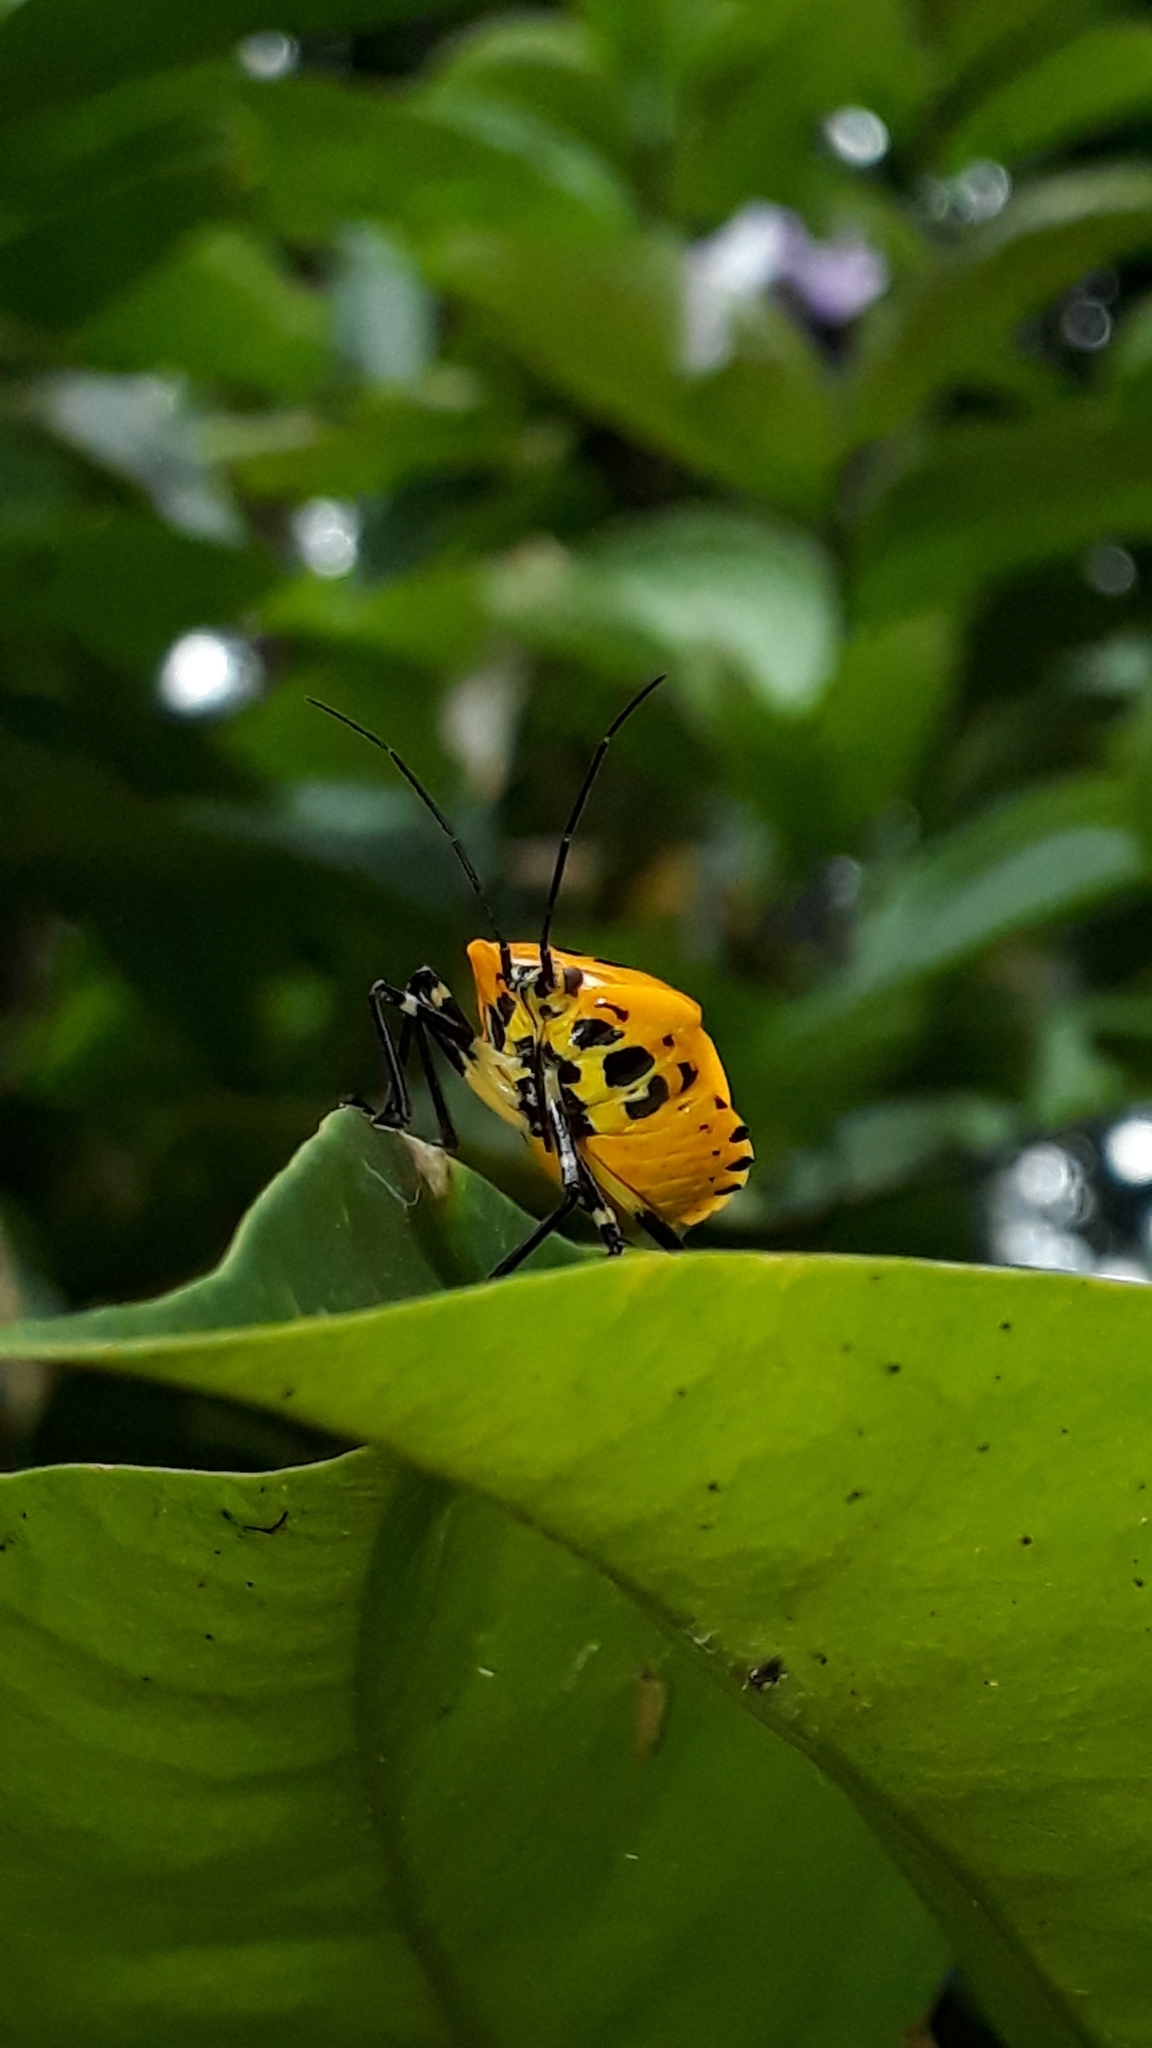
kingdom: Animalia
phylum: Arthropoda
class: Insecta
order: Hemiptera
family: Pentatomidae
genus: Runibia
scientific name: Runibia decorata
